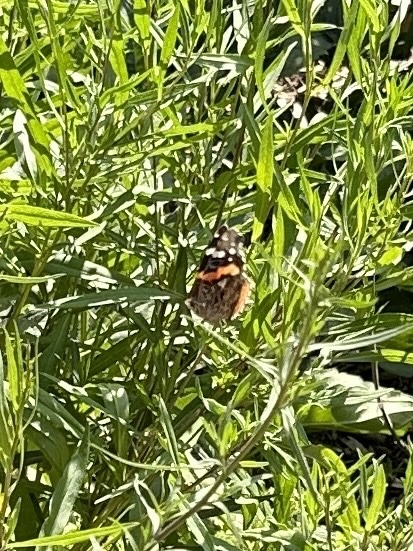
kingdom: Animalia
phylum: Arthropoda
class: Insecta
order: Lepidoptera
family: Nymphalidae
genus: Vanessa
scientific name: Vanessa atalanta
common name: Red admiral
